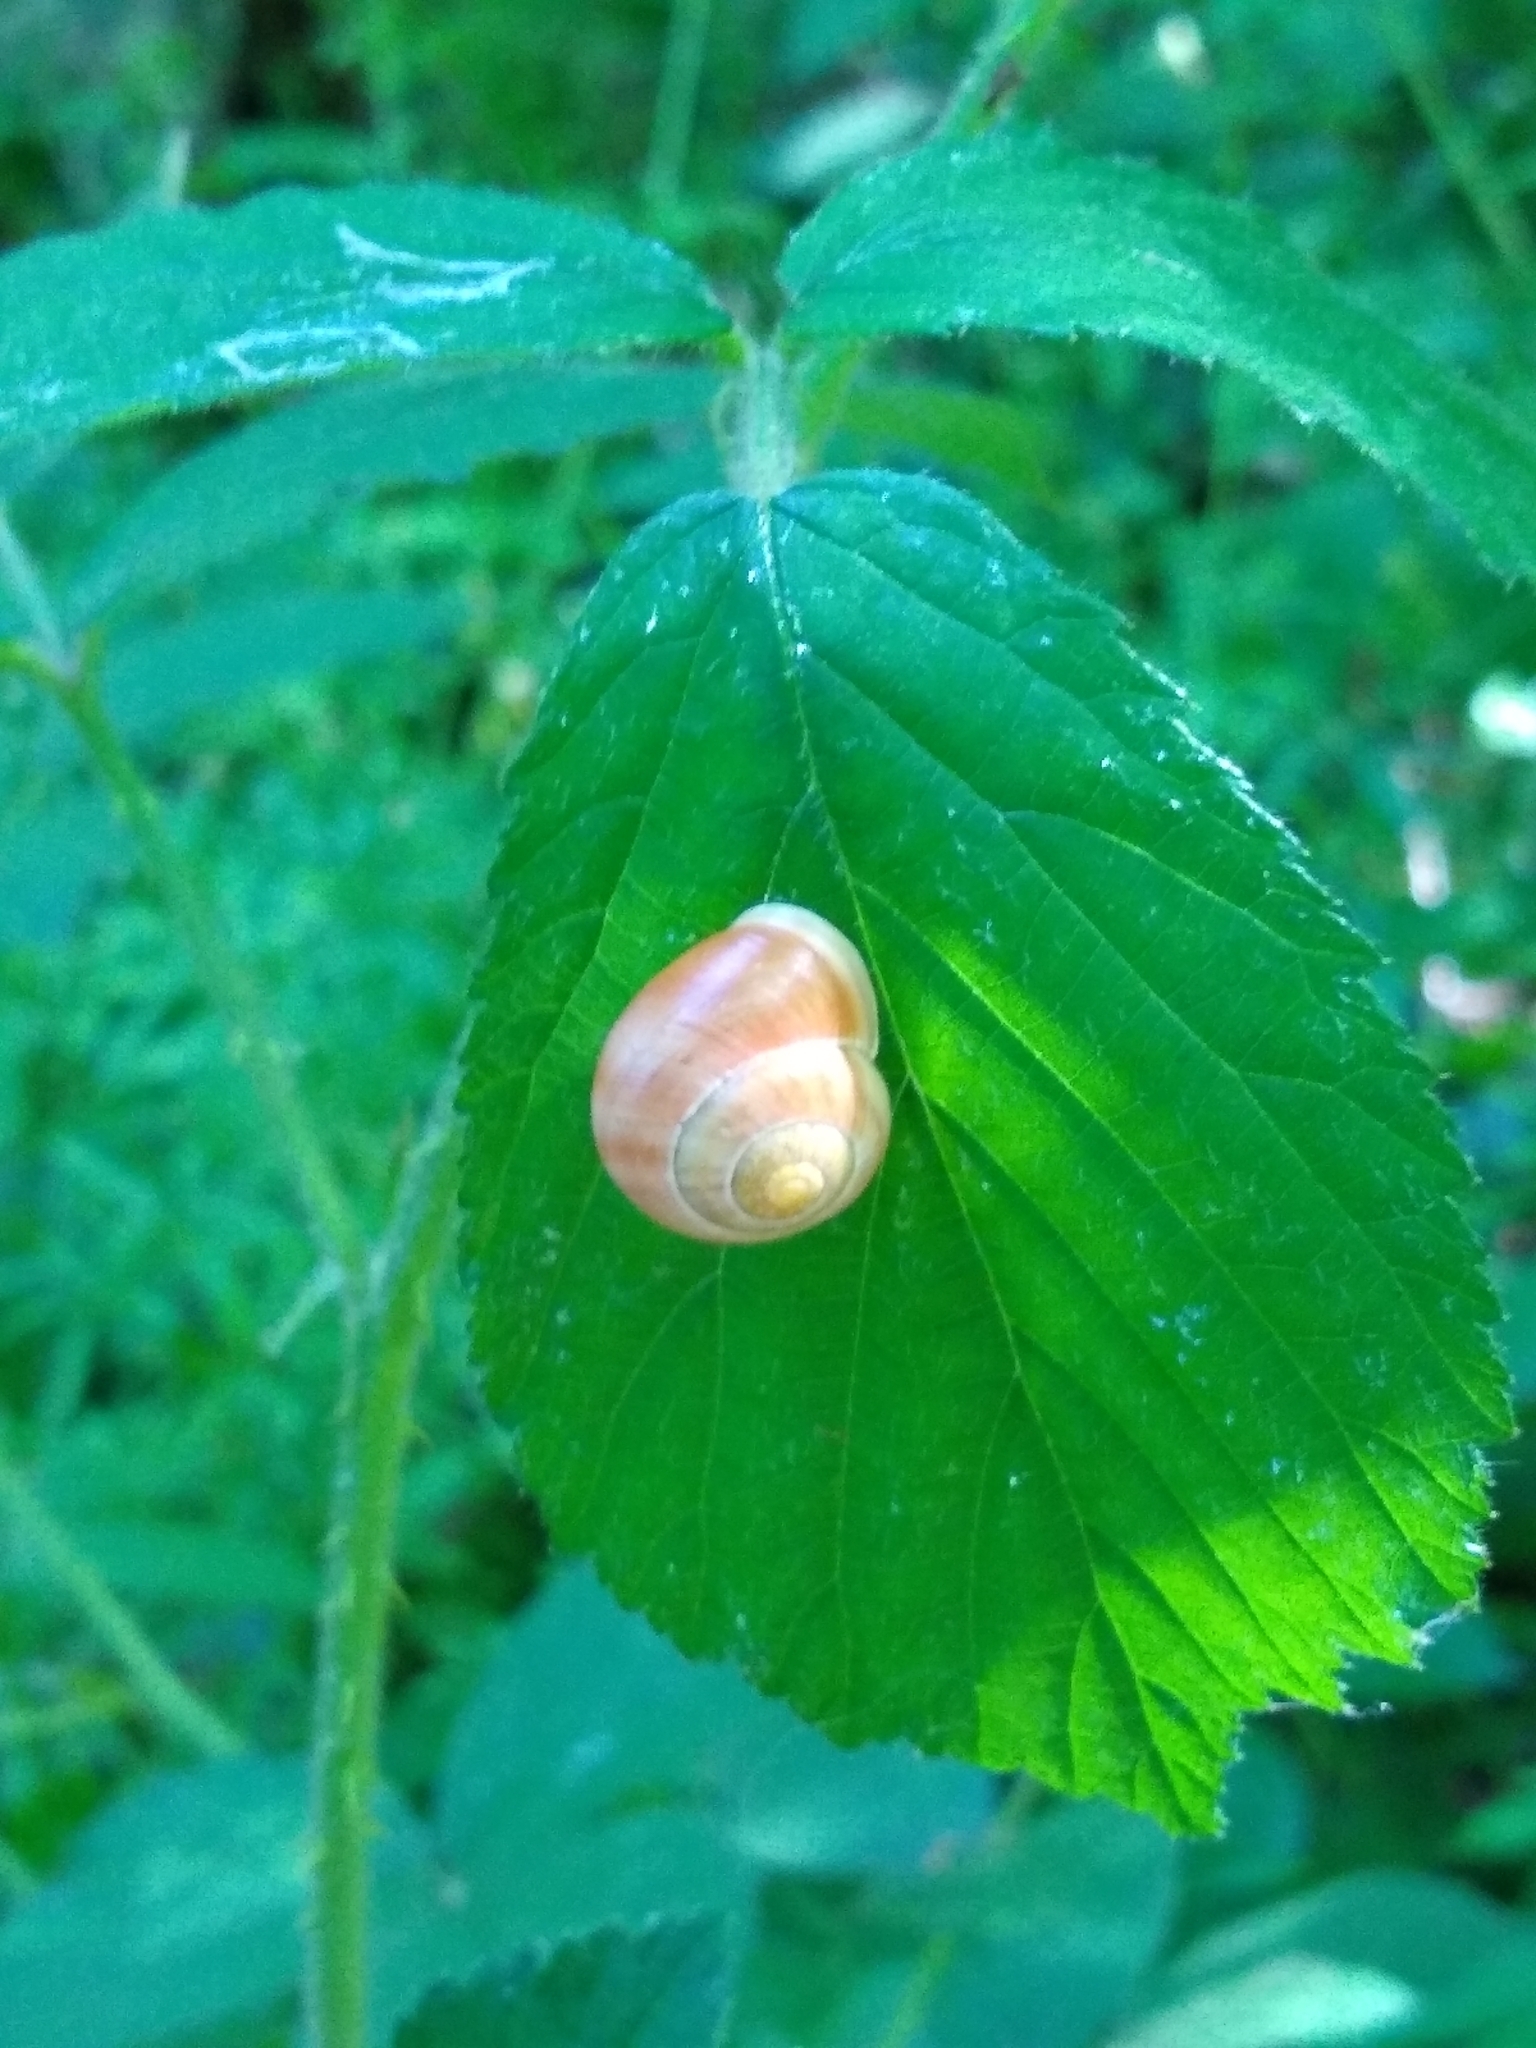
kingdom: Animalia
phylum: Mollusca
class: Gastropoda
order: Stylommatophora
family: Helicidae
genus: Cepaea
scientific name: Cepaea hortensis
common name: White-lip gardensnail
